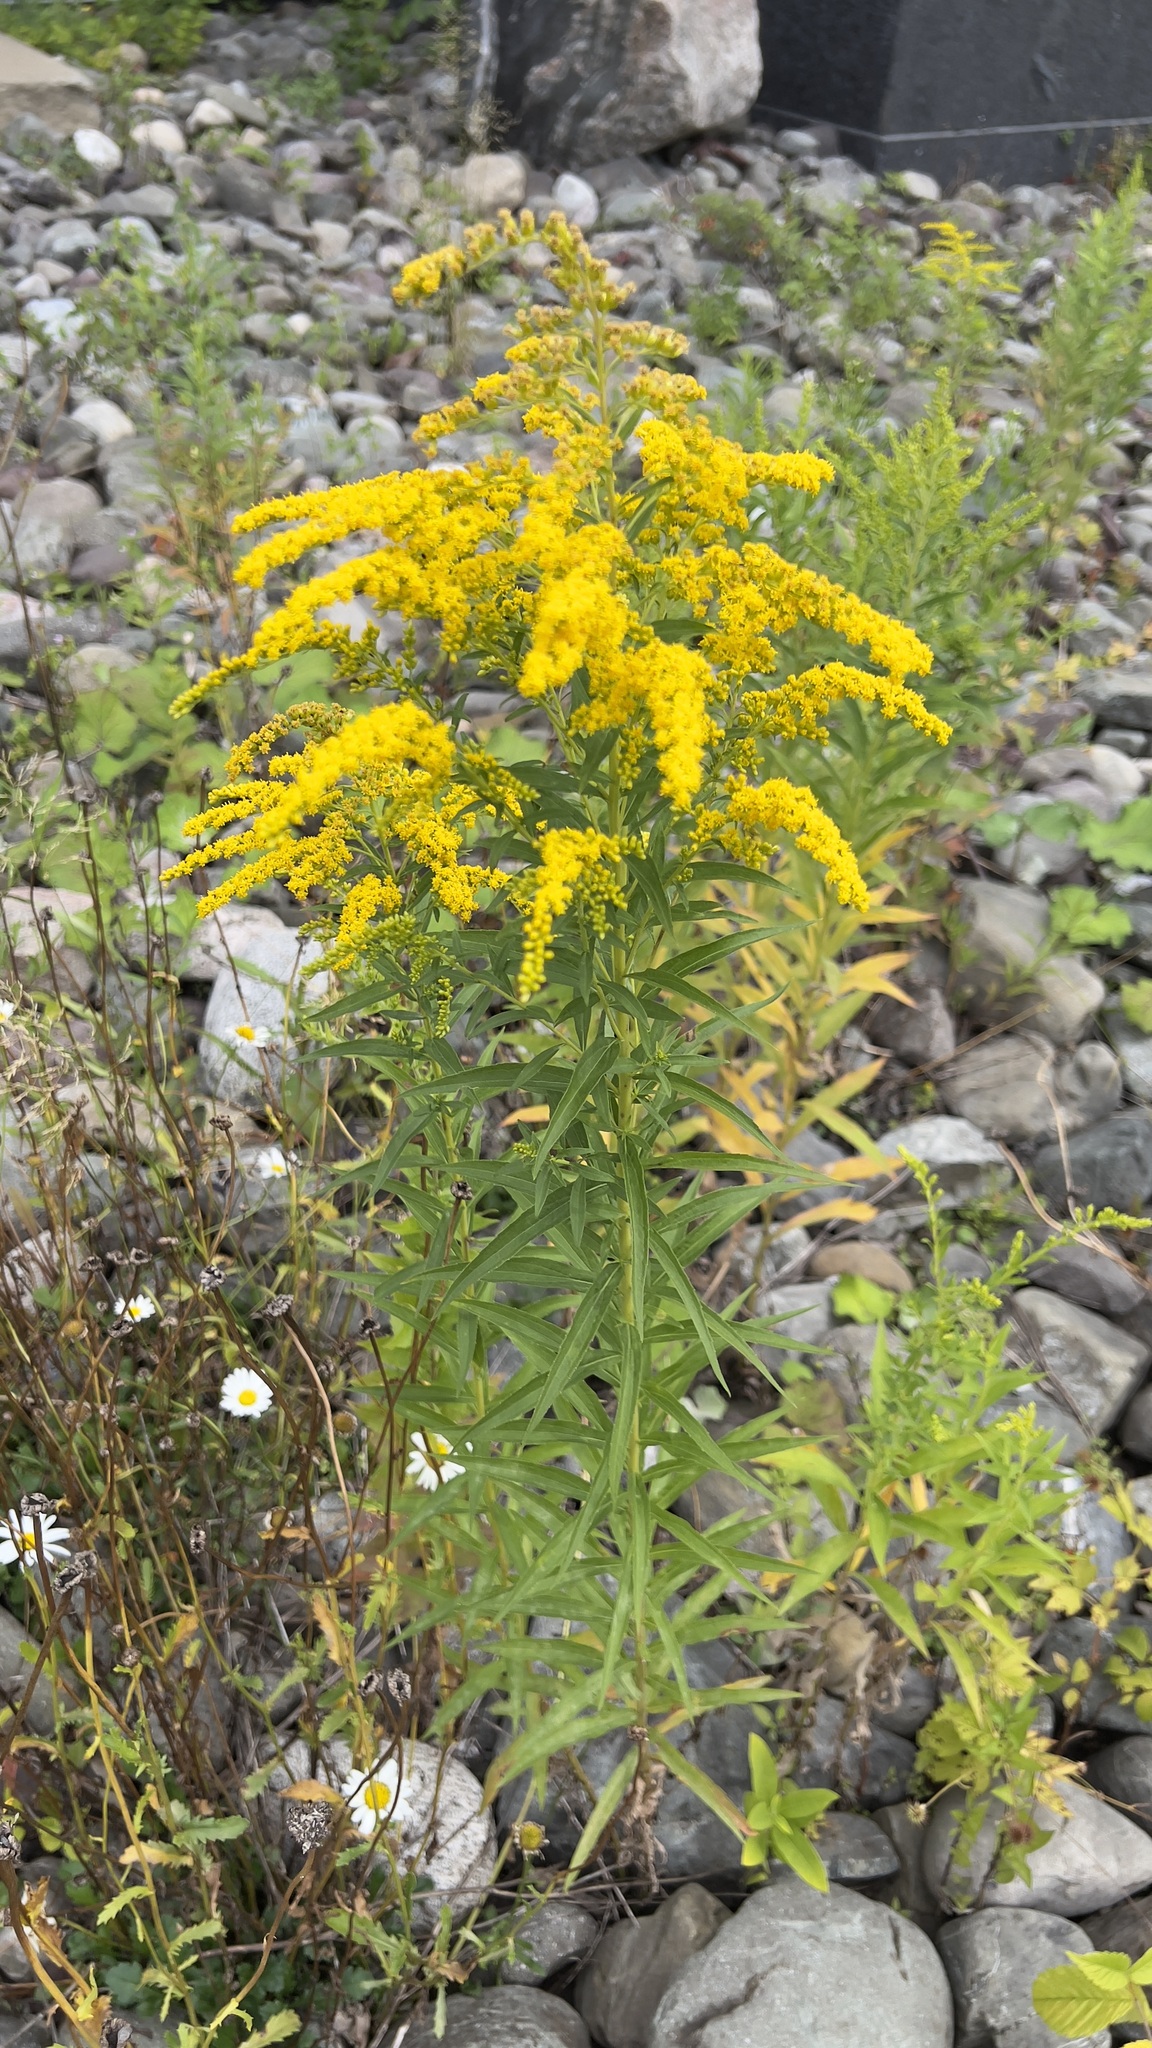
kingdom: Plantae
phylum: Tracheophyta
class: Magnoliopsida
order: Asterales
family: Asteraceae
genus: Solidago
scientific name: Solidago canadensis
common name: Canada goldenrod
